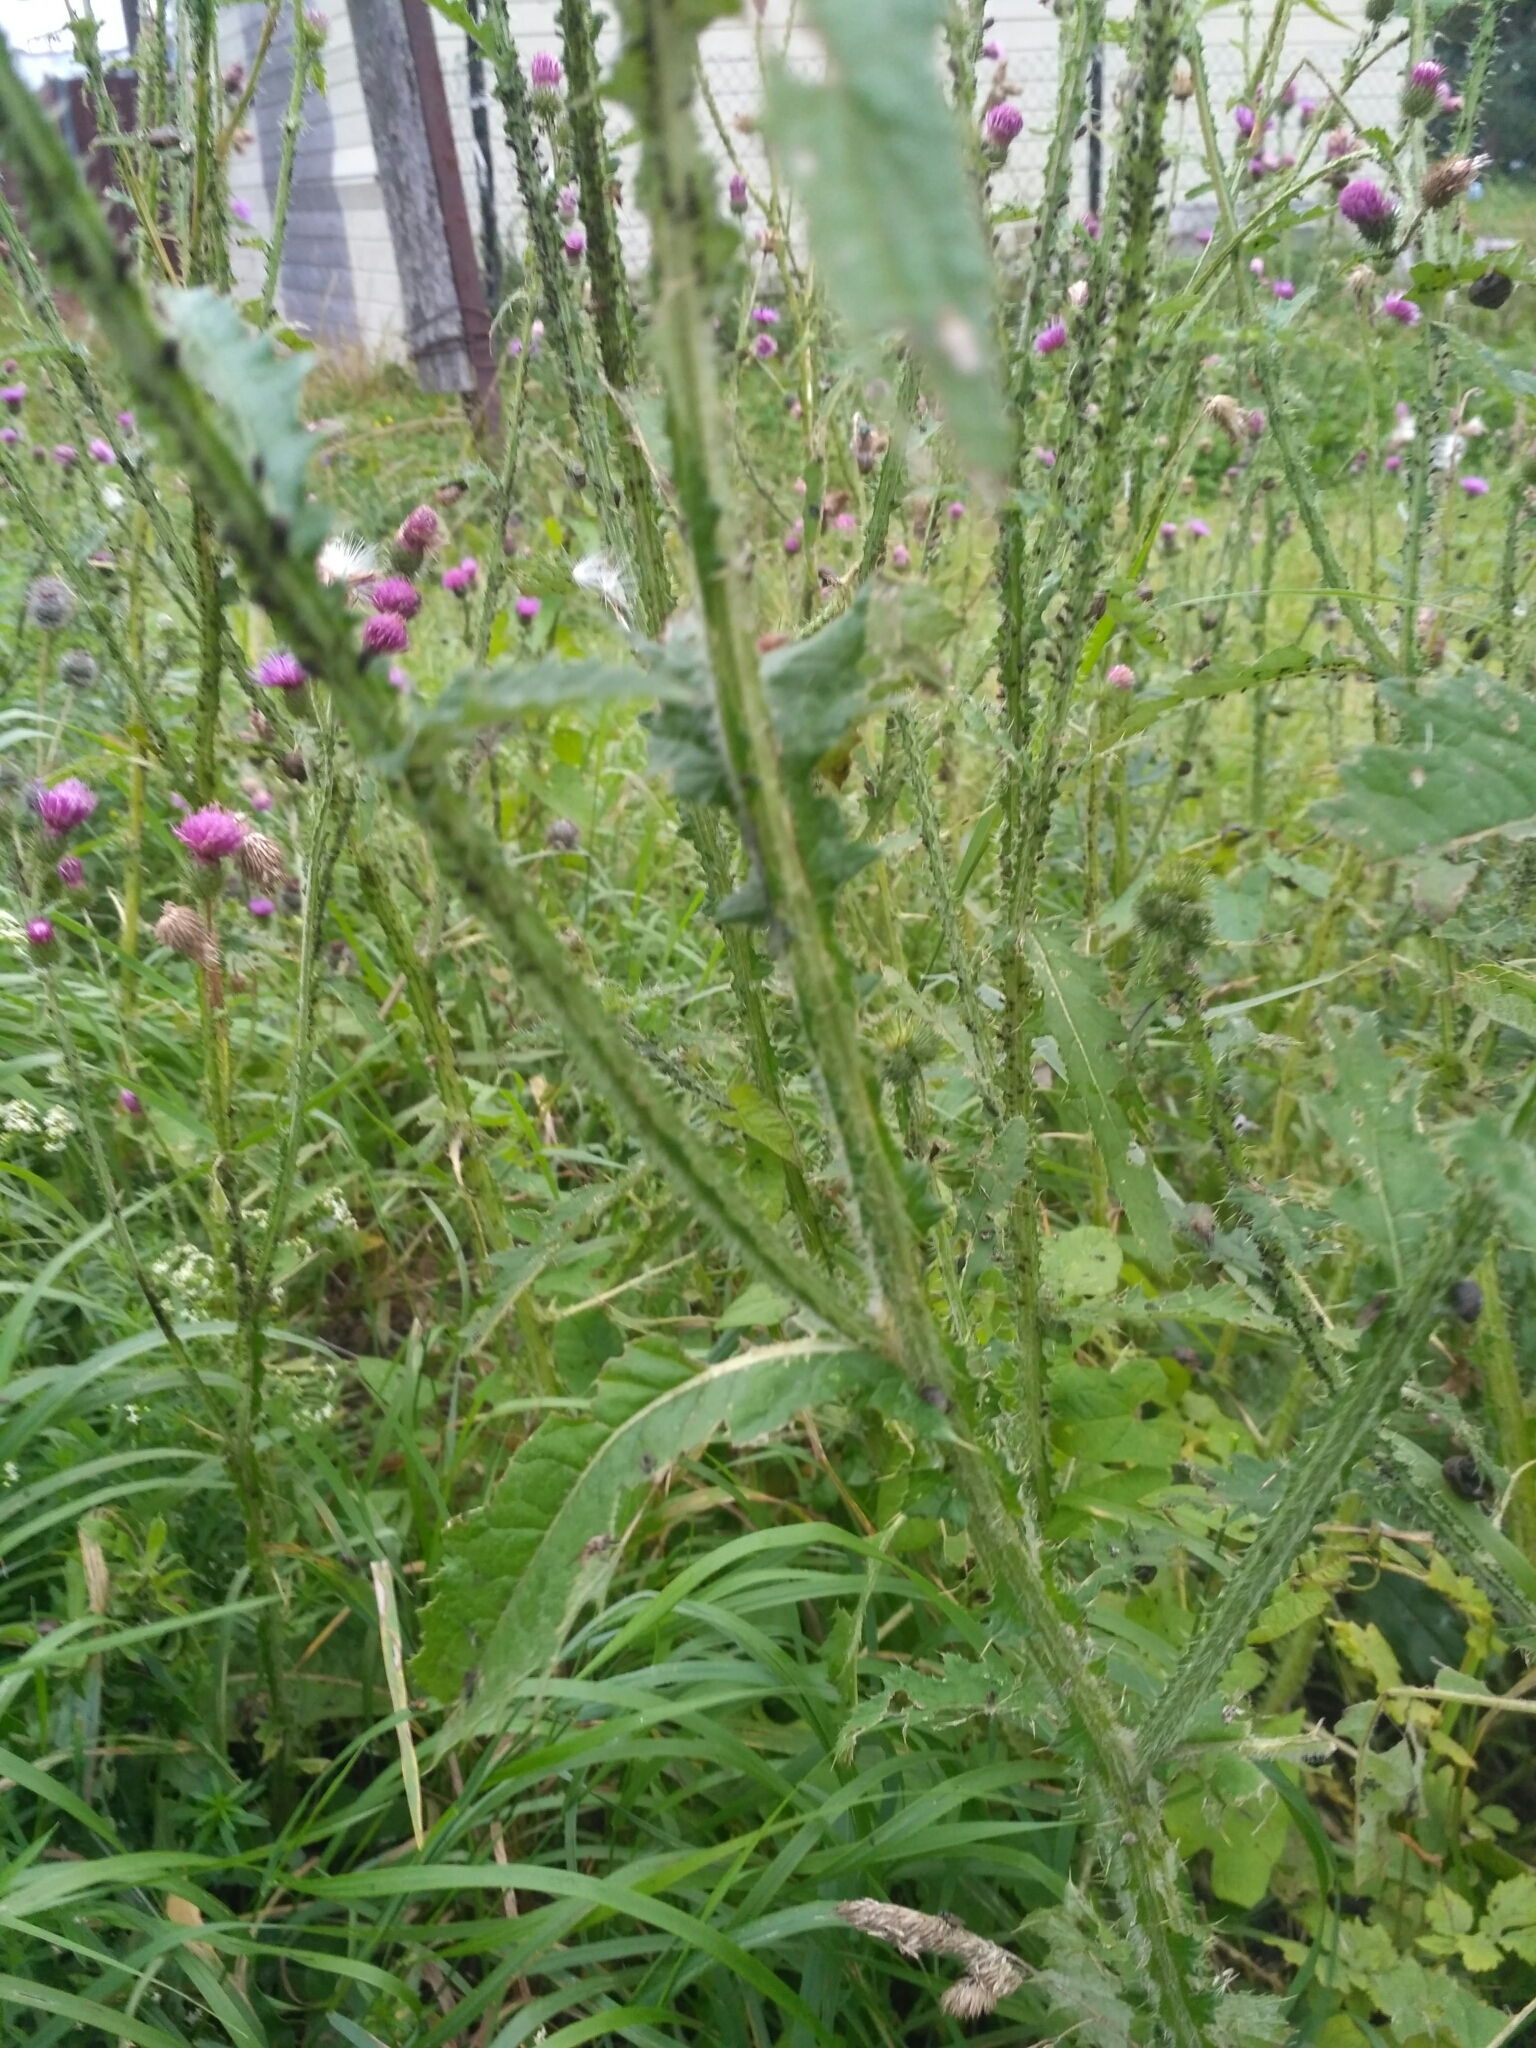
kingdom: Plantae
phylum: Tracheophyta
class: Magnoliopsida
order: Asterales
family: Asteraceae
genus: Carduus
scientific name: Carduus crispus
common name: Welted thistle
